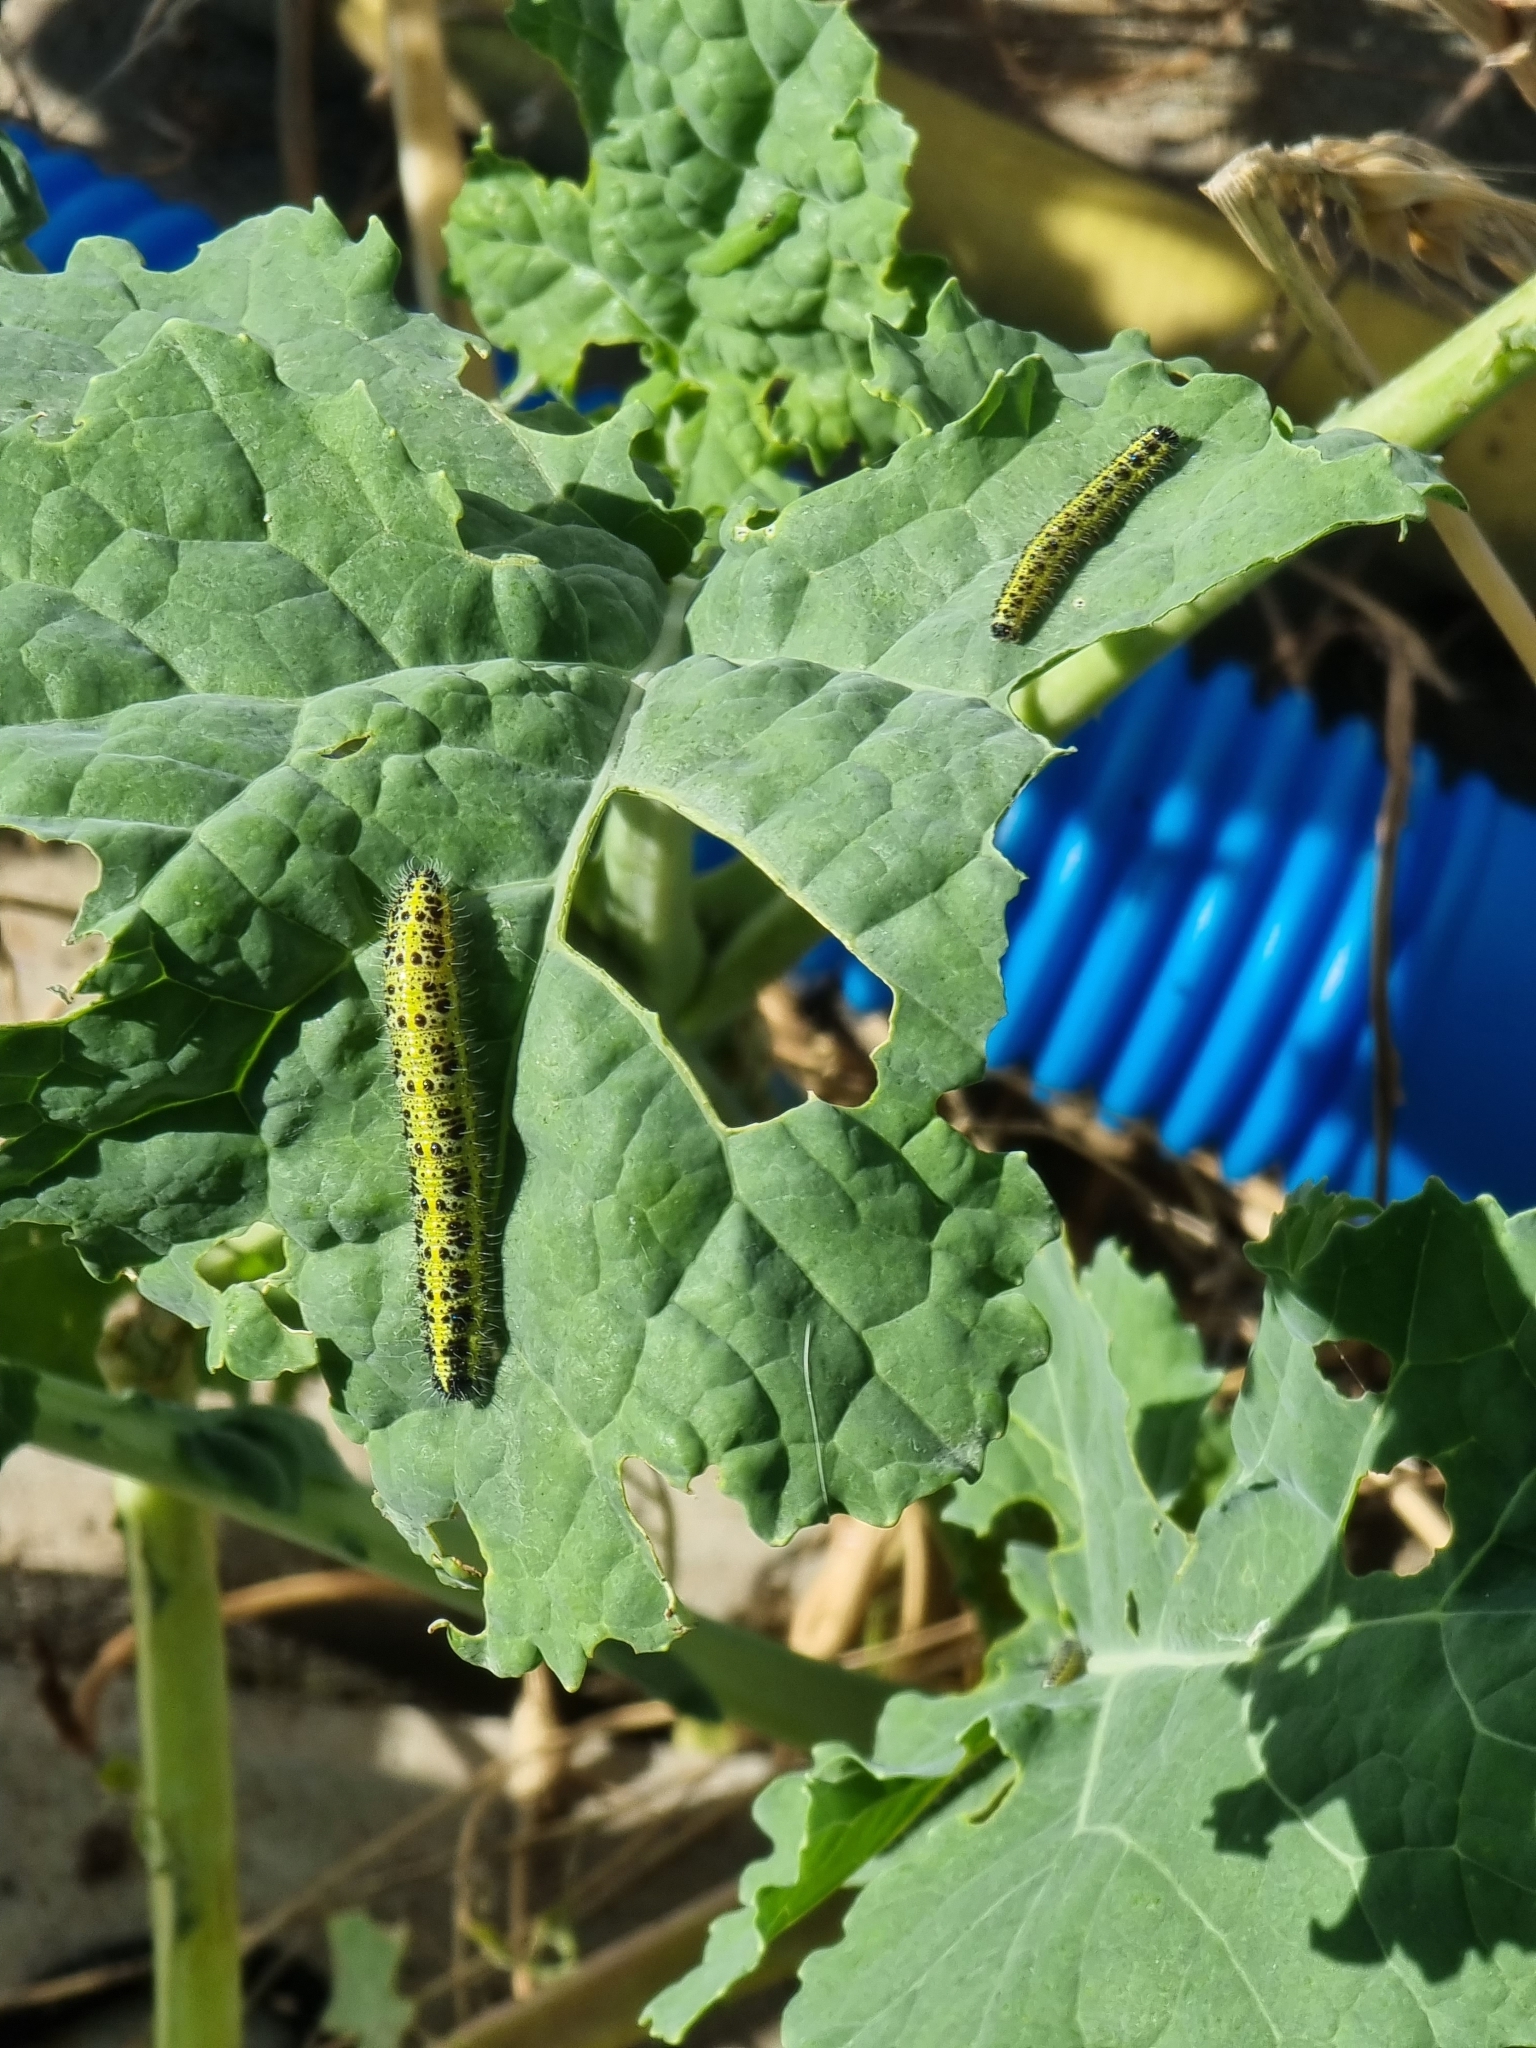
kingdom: Animalia
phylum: Arthropoda
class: Insecta
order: Lepidoptera
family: Pieridae
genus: Pieris
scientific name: Pieris brassicae
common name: Large white
